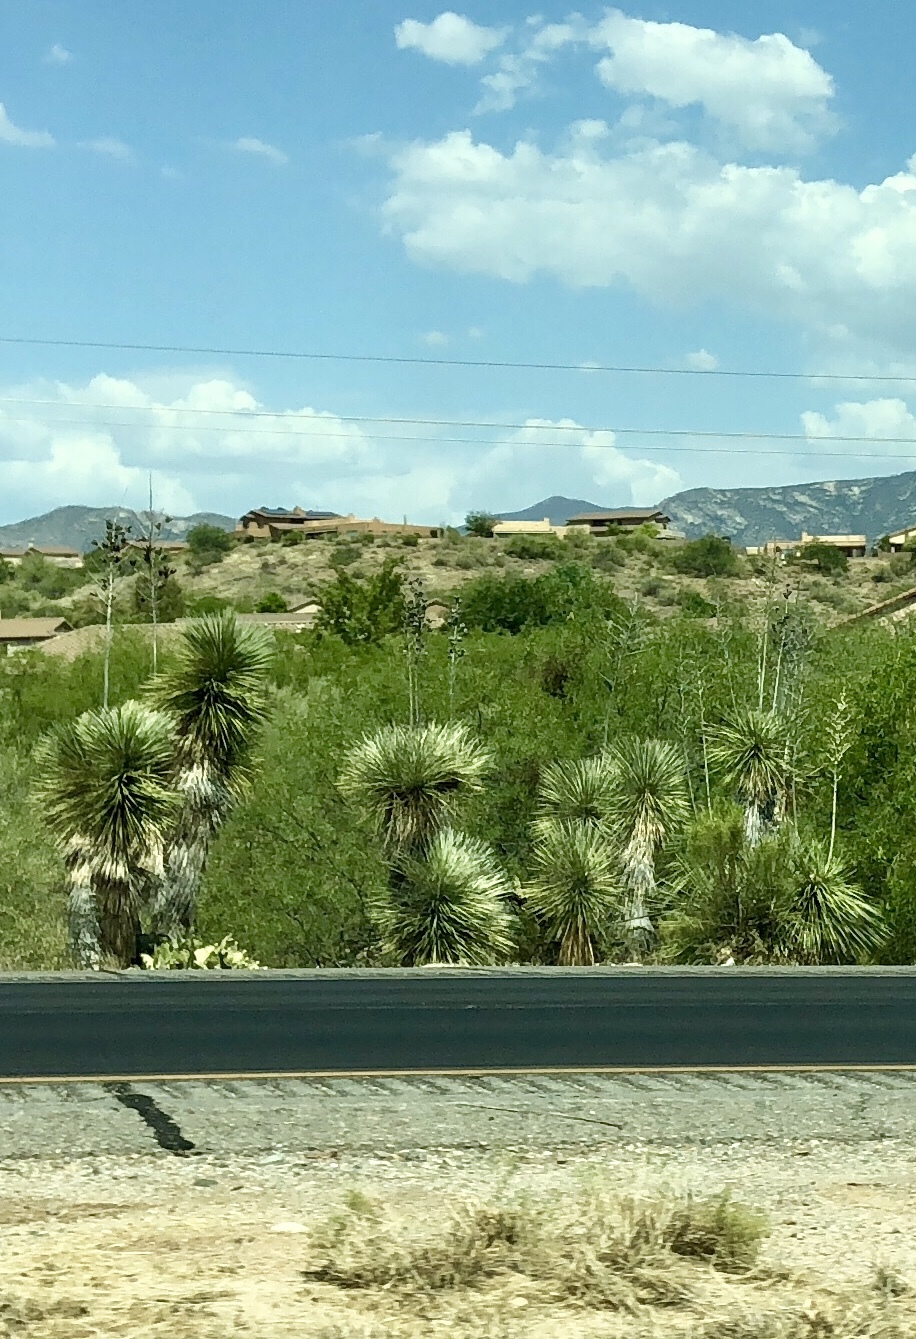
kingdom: Plantae
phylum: Tracheophyta
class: Liliopsida
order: Asparagales
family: Asparagaceae
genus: Yucca
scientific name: Yucca elata
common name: Palmella
